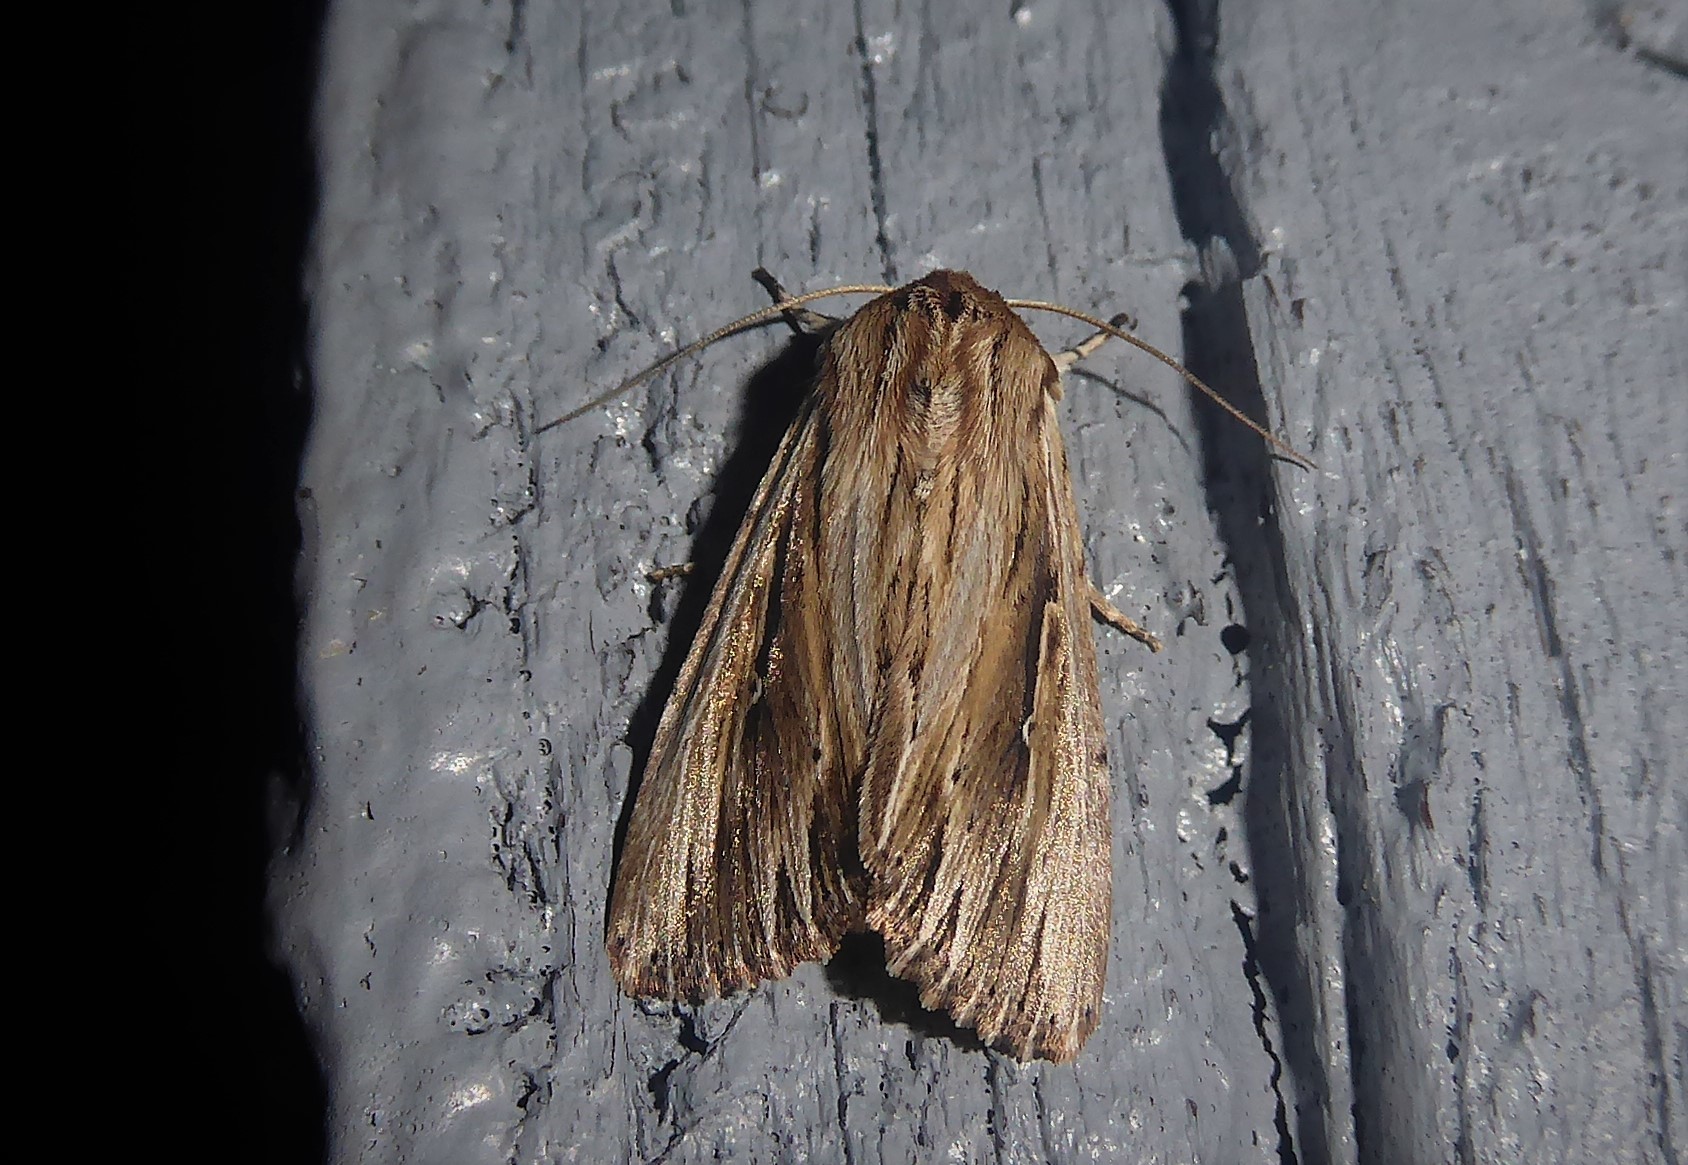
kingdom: Animalia
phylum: Arthropoda
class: Insecta
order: Lepidoptera
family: Noctuidae
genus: Persectania
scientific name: Persectania aversa
